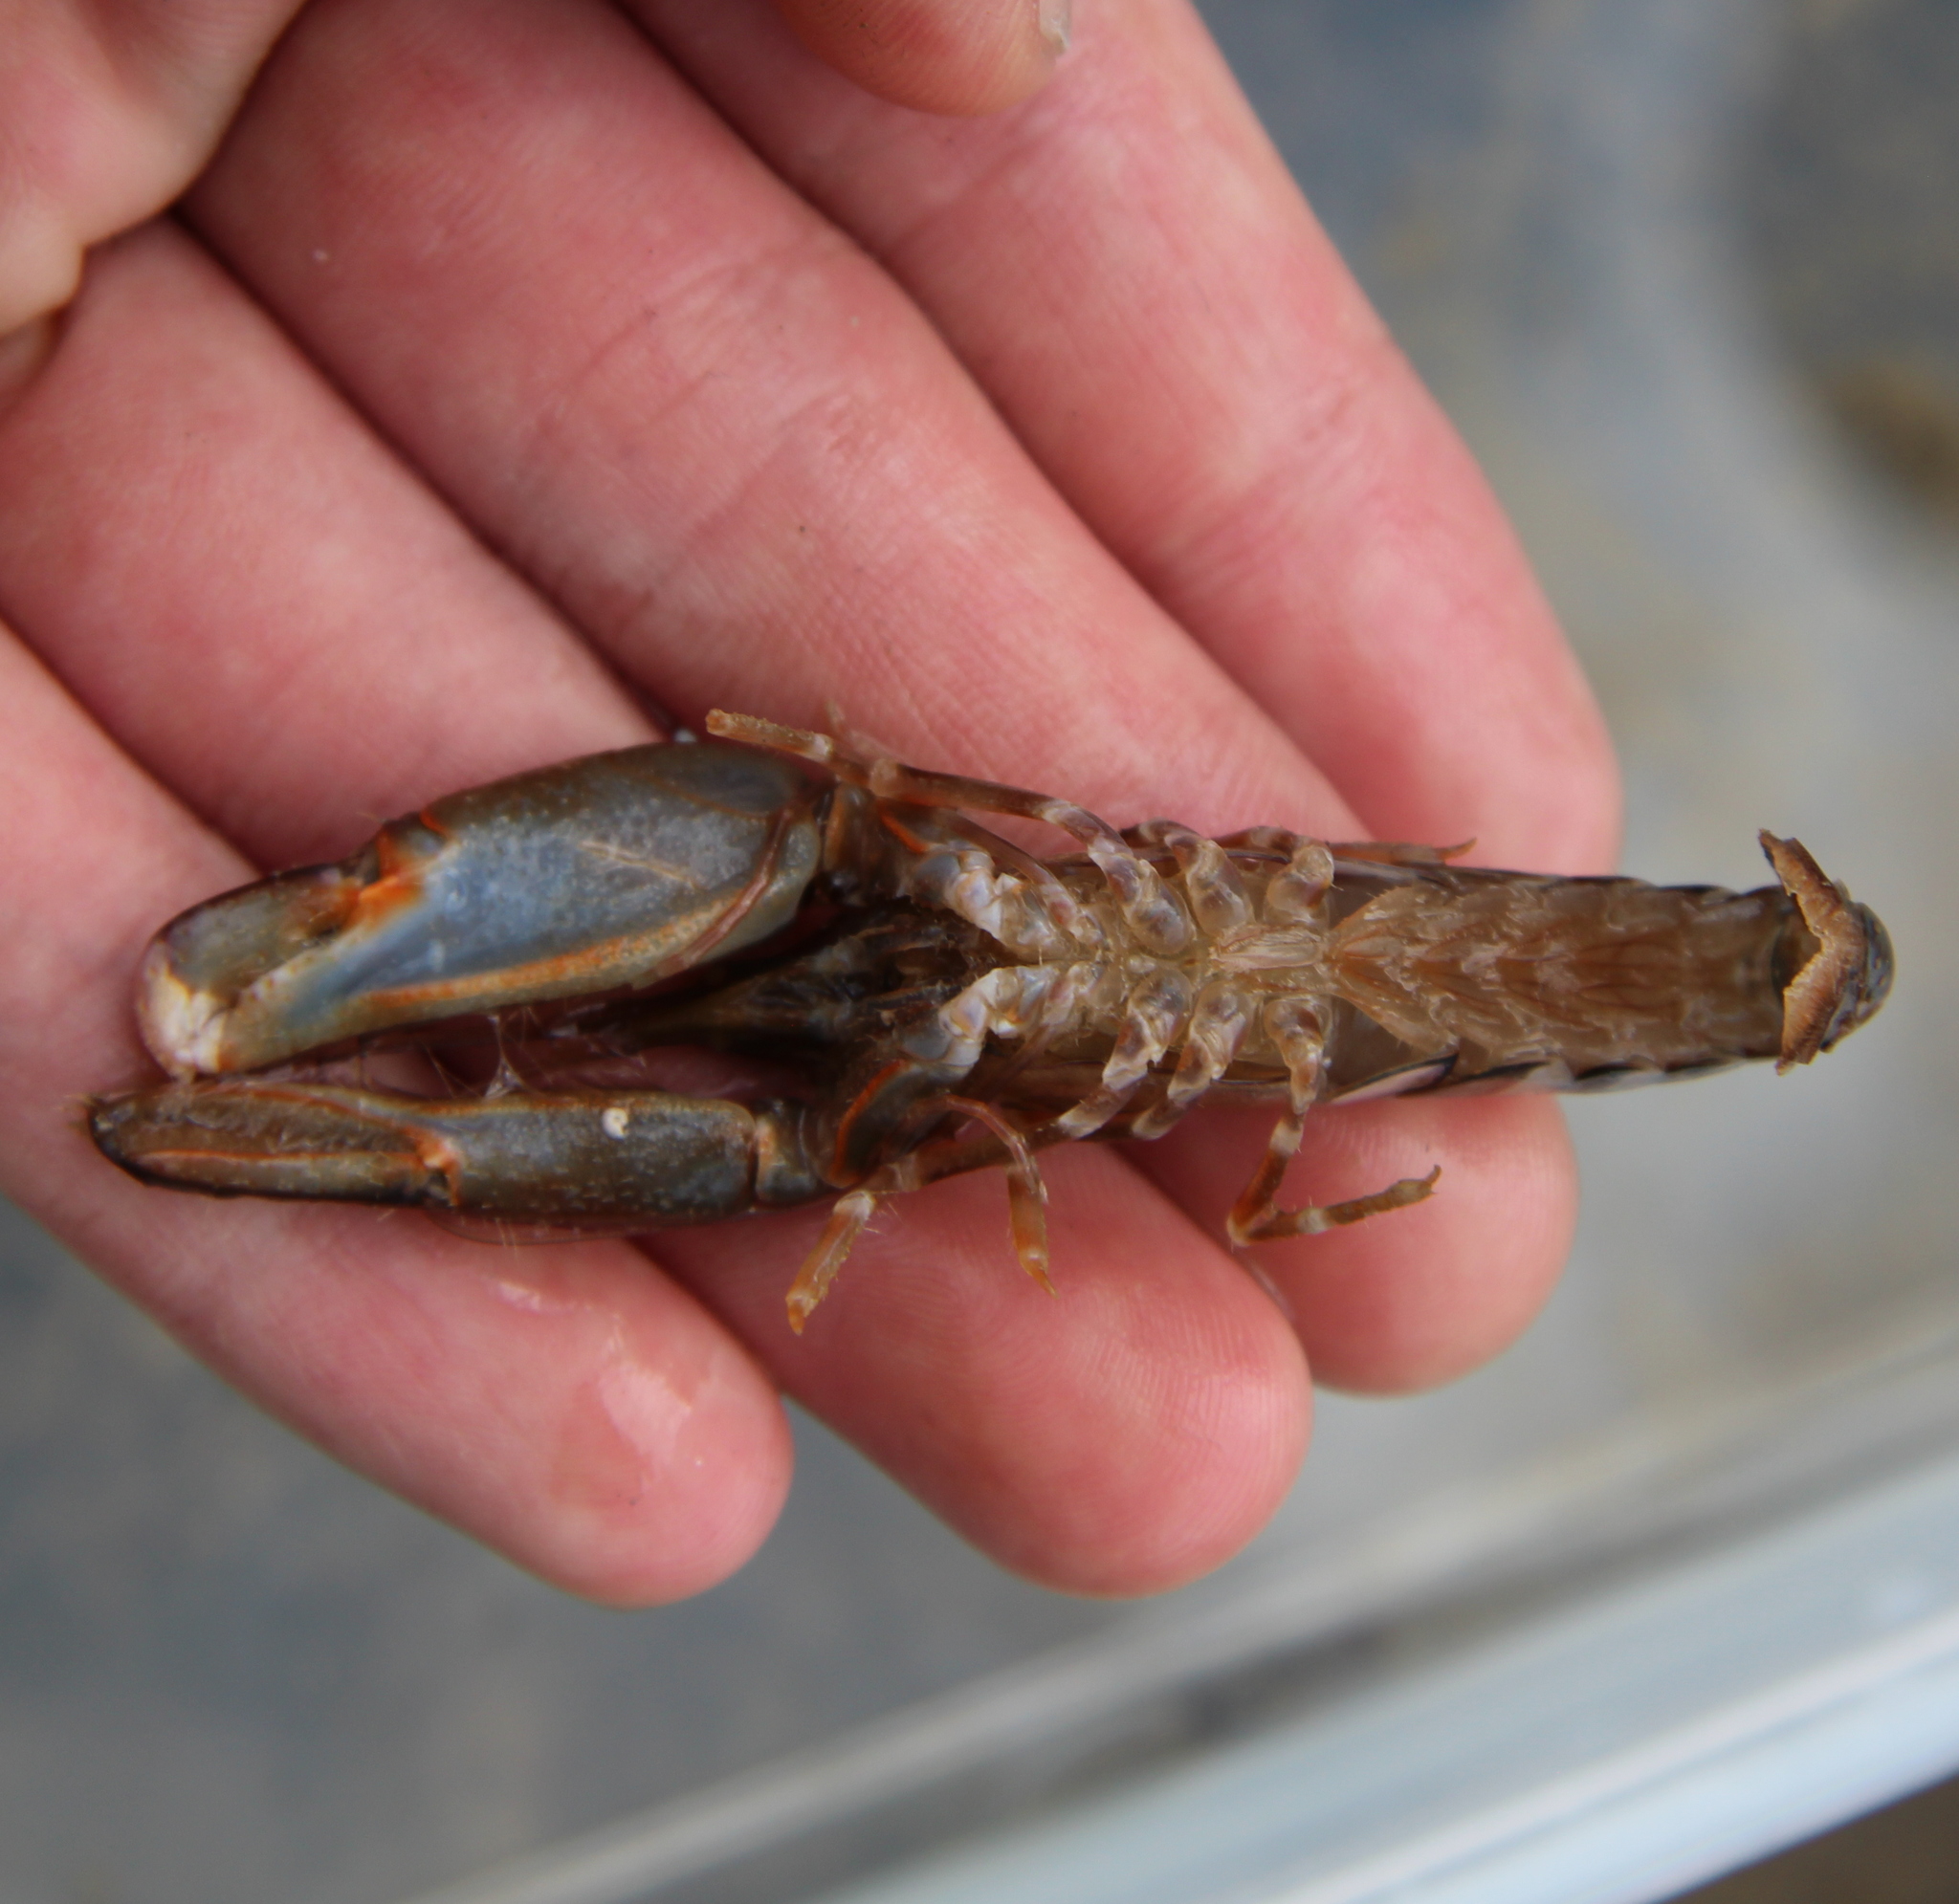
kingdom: Animalia
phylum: Arthropoda
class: Malacostraca
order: Decapoda
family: Alpheidae
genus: Alpheus
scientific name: Alpheus novaezealandiae
